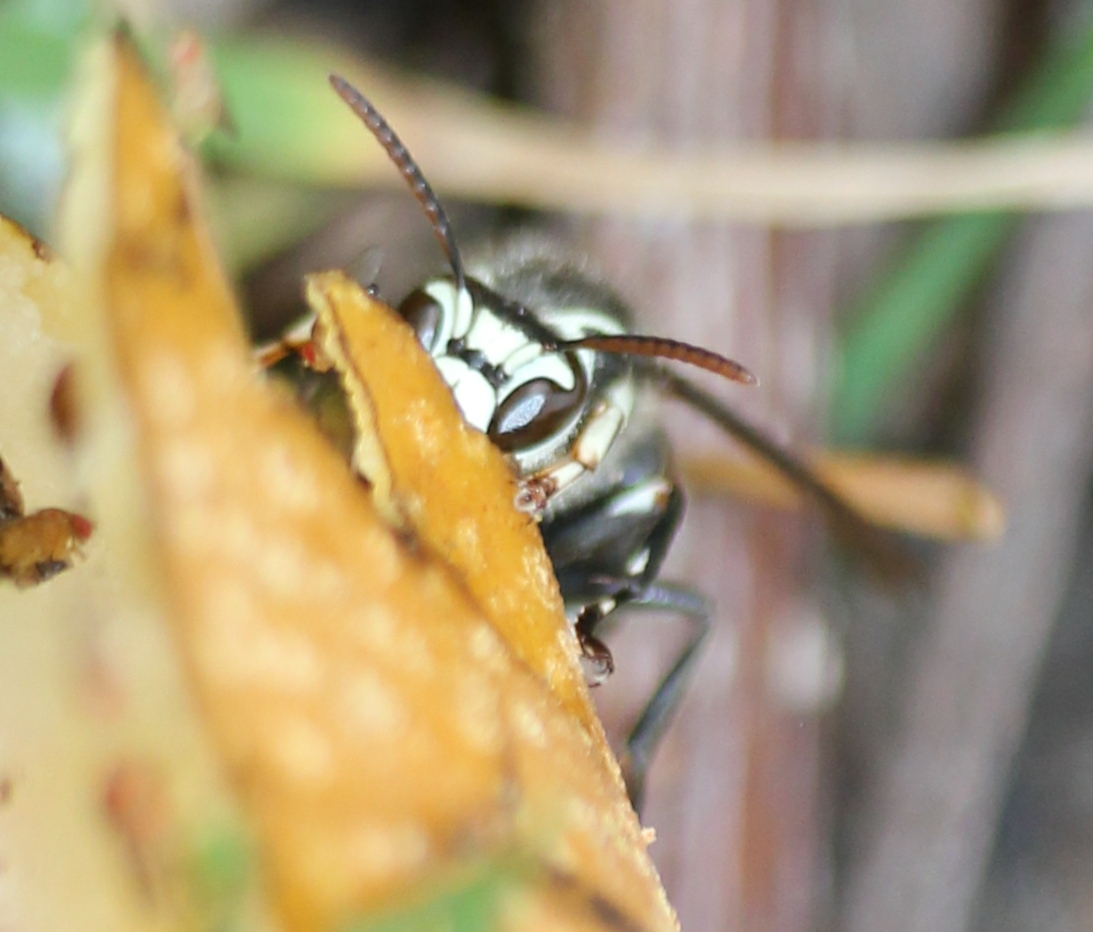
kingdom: Animalia
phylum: Arthropoda
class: Insecta
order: Hymenoptera
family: Vespidae
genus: Dolichovespula
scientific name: Dolichovespula maculata
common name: Bald-faced hornet
